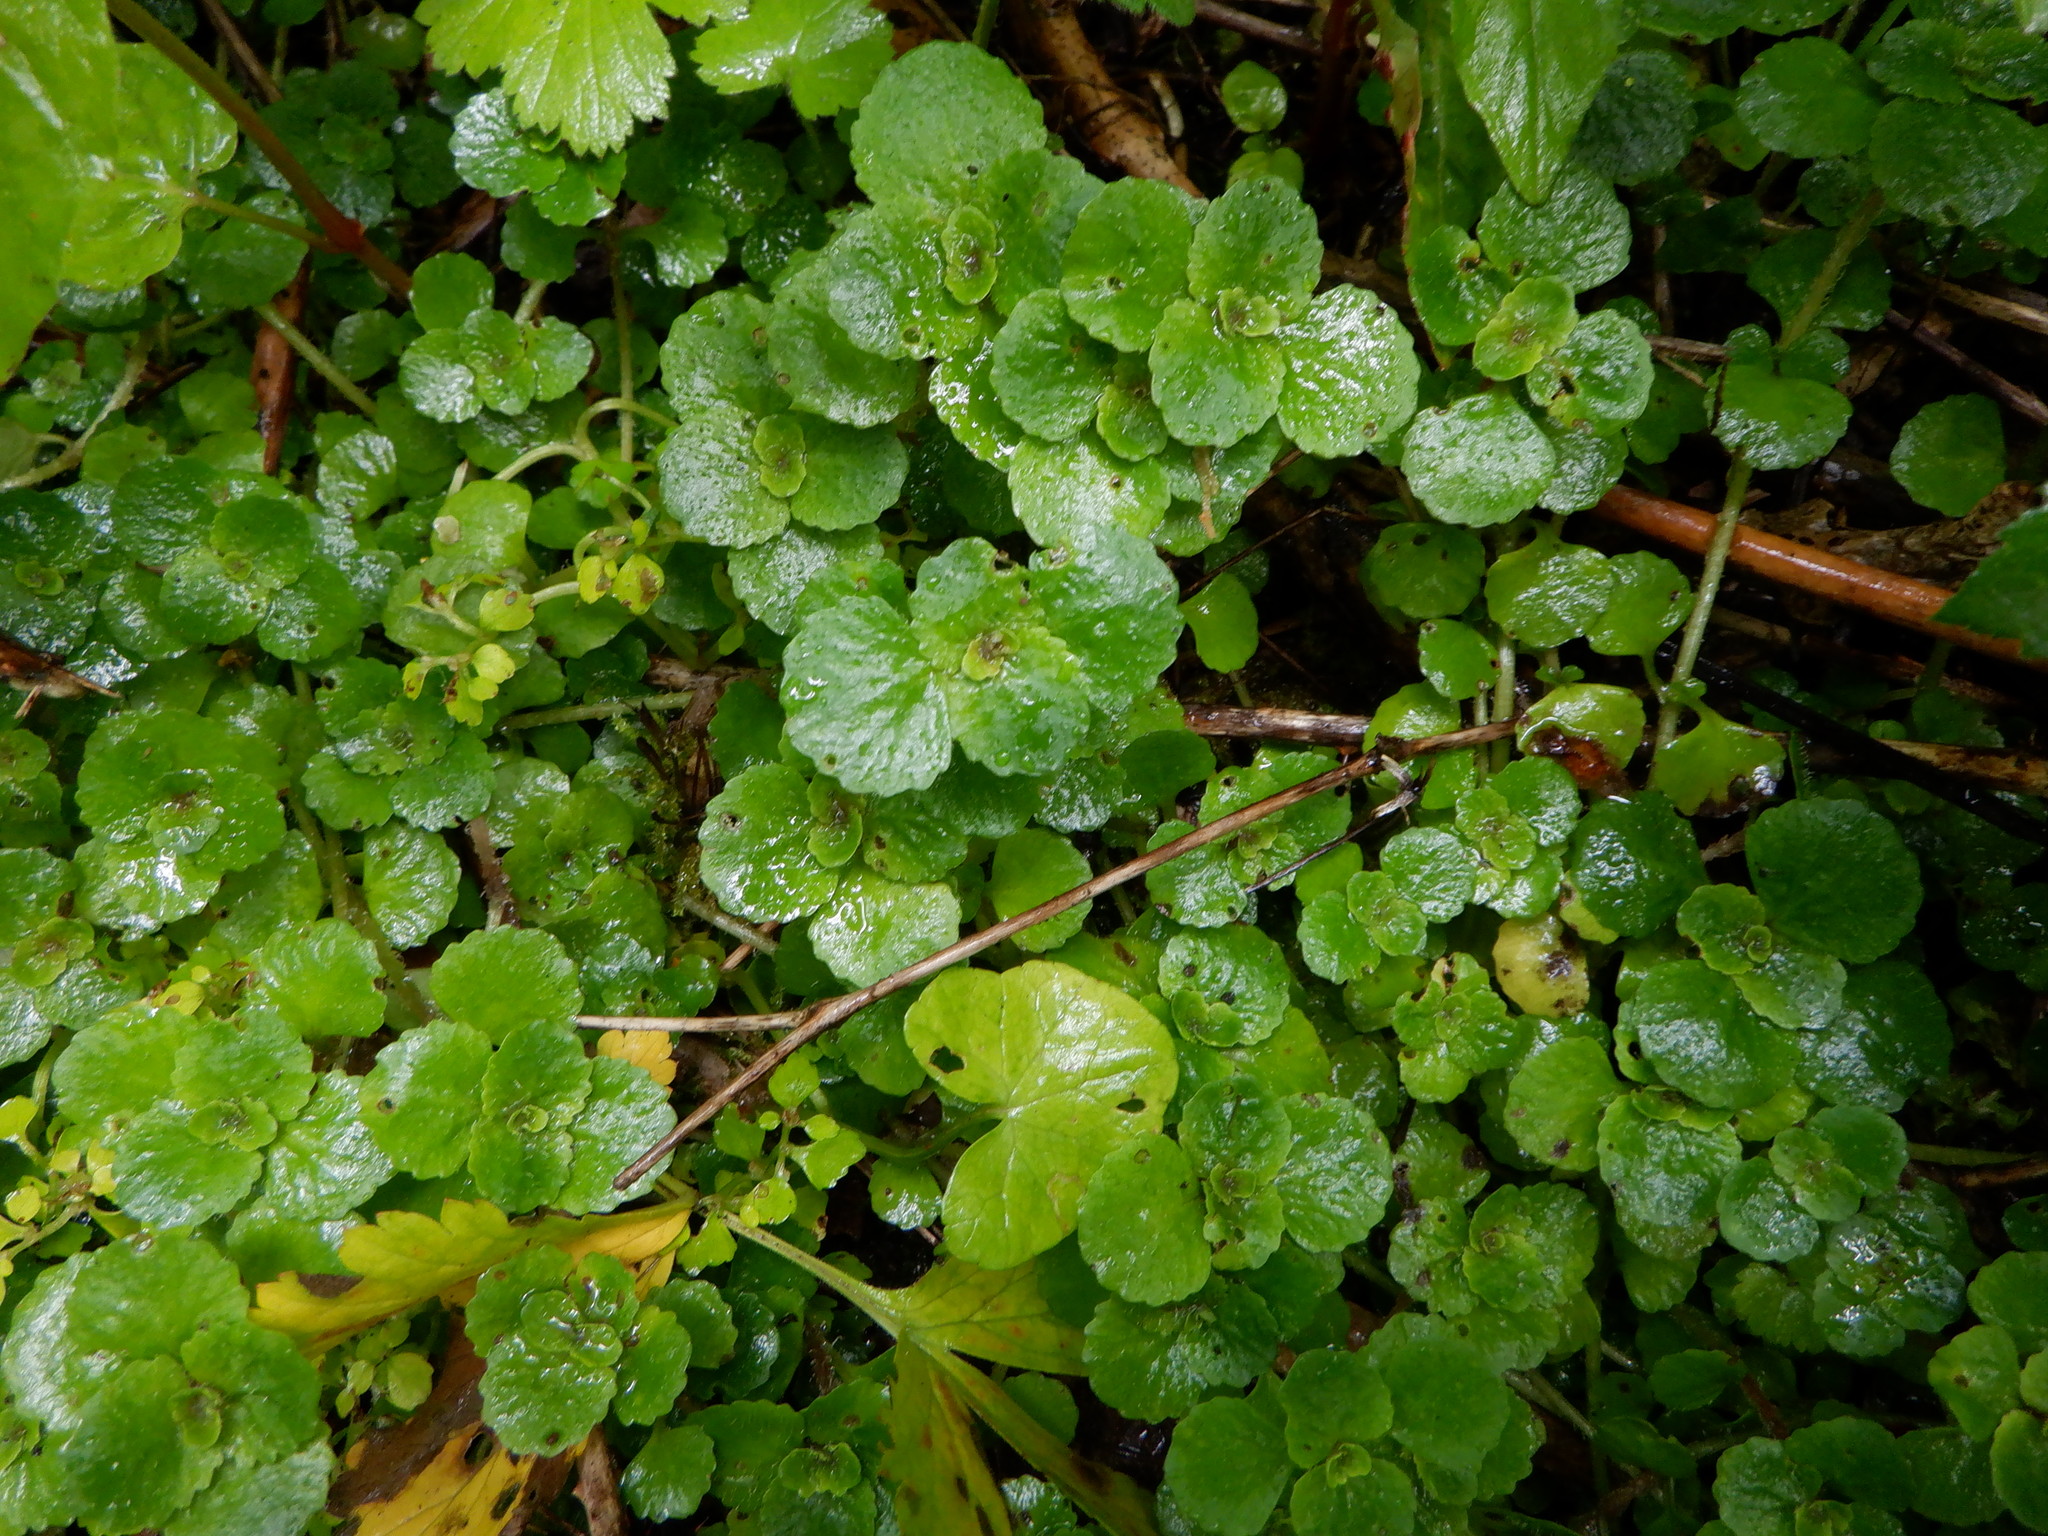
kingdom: Plantae
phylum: Tracheophyta
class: Magnoliopsida
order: Saxifragales
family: Saxifragaceae
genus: Chrysosplenium
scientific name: Chrysosplenium oppositifolium
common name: Opposite-leaved golden-saxifrage
